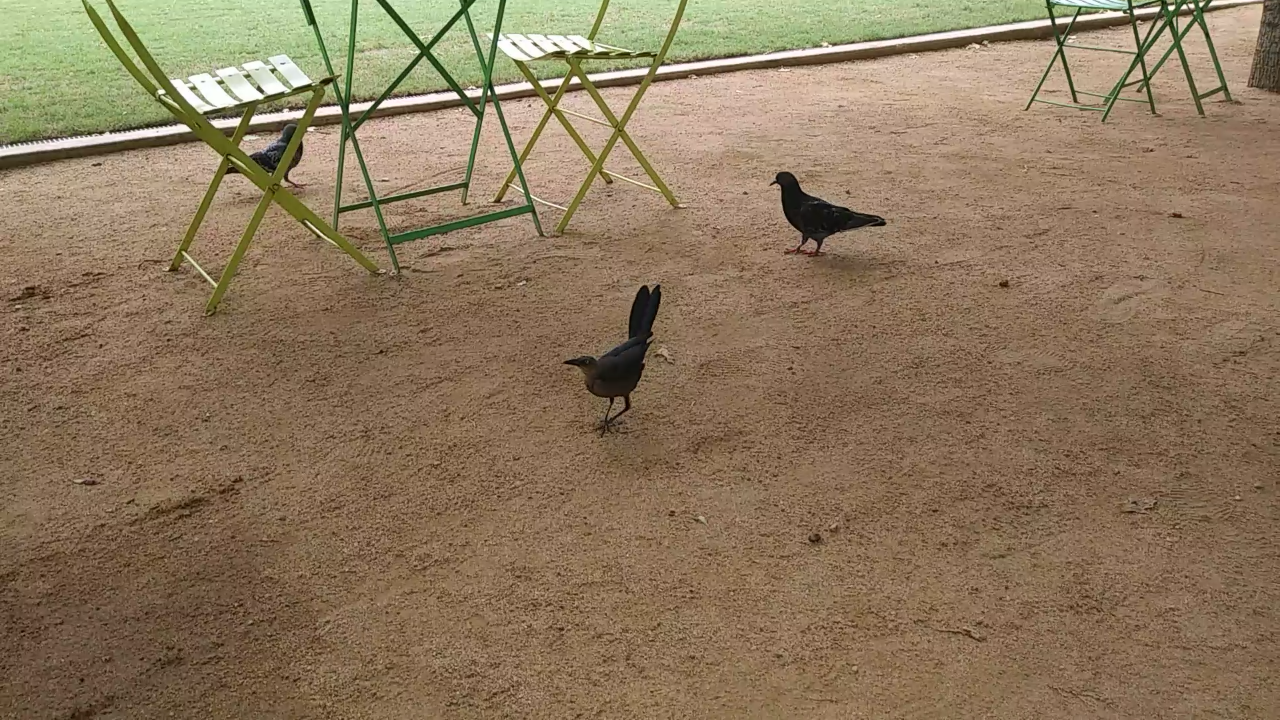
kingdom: Animalia
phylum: Chordata
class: Aves
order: Passeriformes
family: Icteridae
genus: Quiscalus
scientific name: Quiscalus mexicanus
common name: Great-tailed grackle
